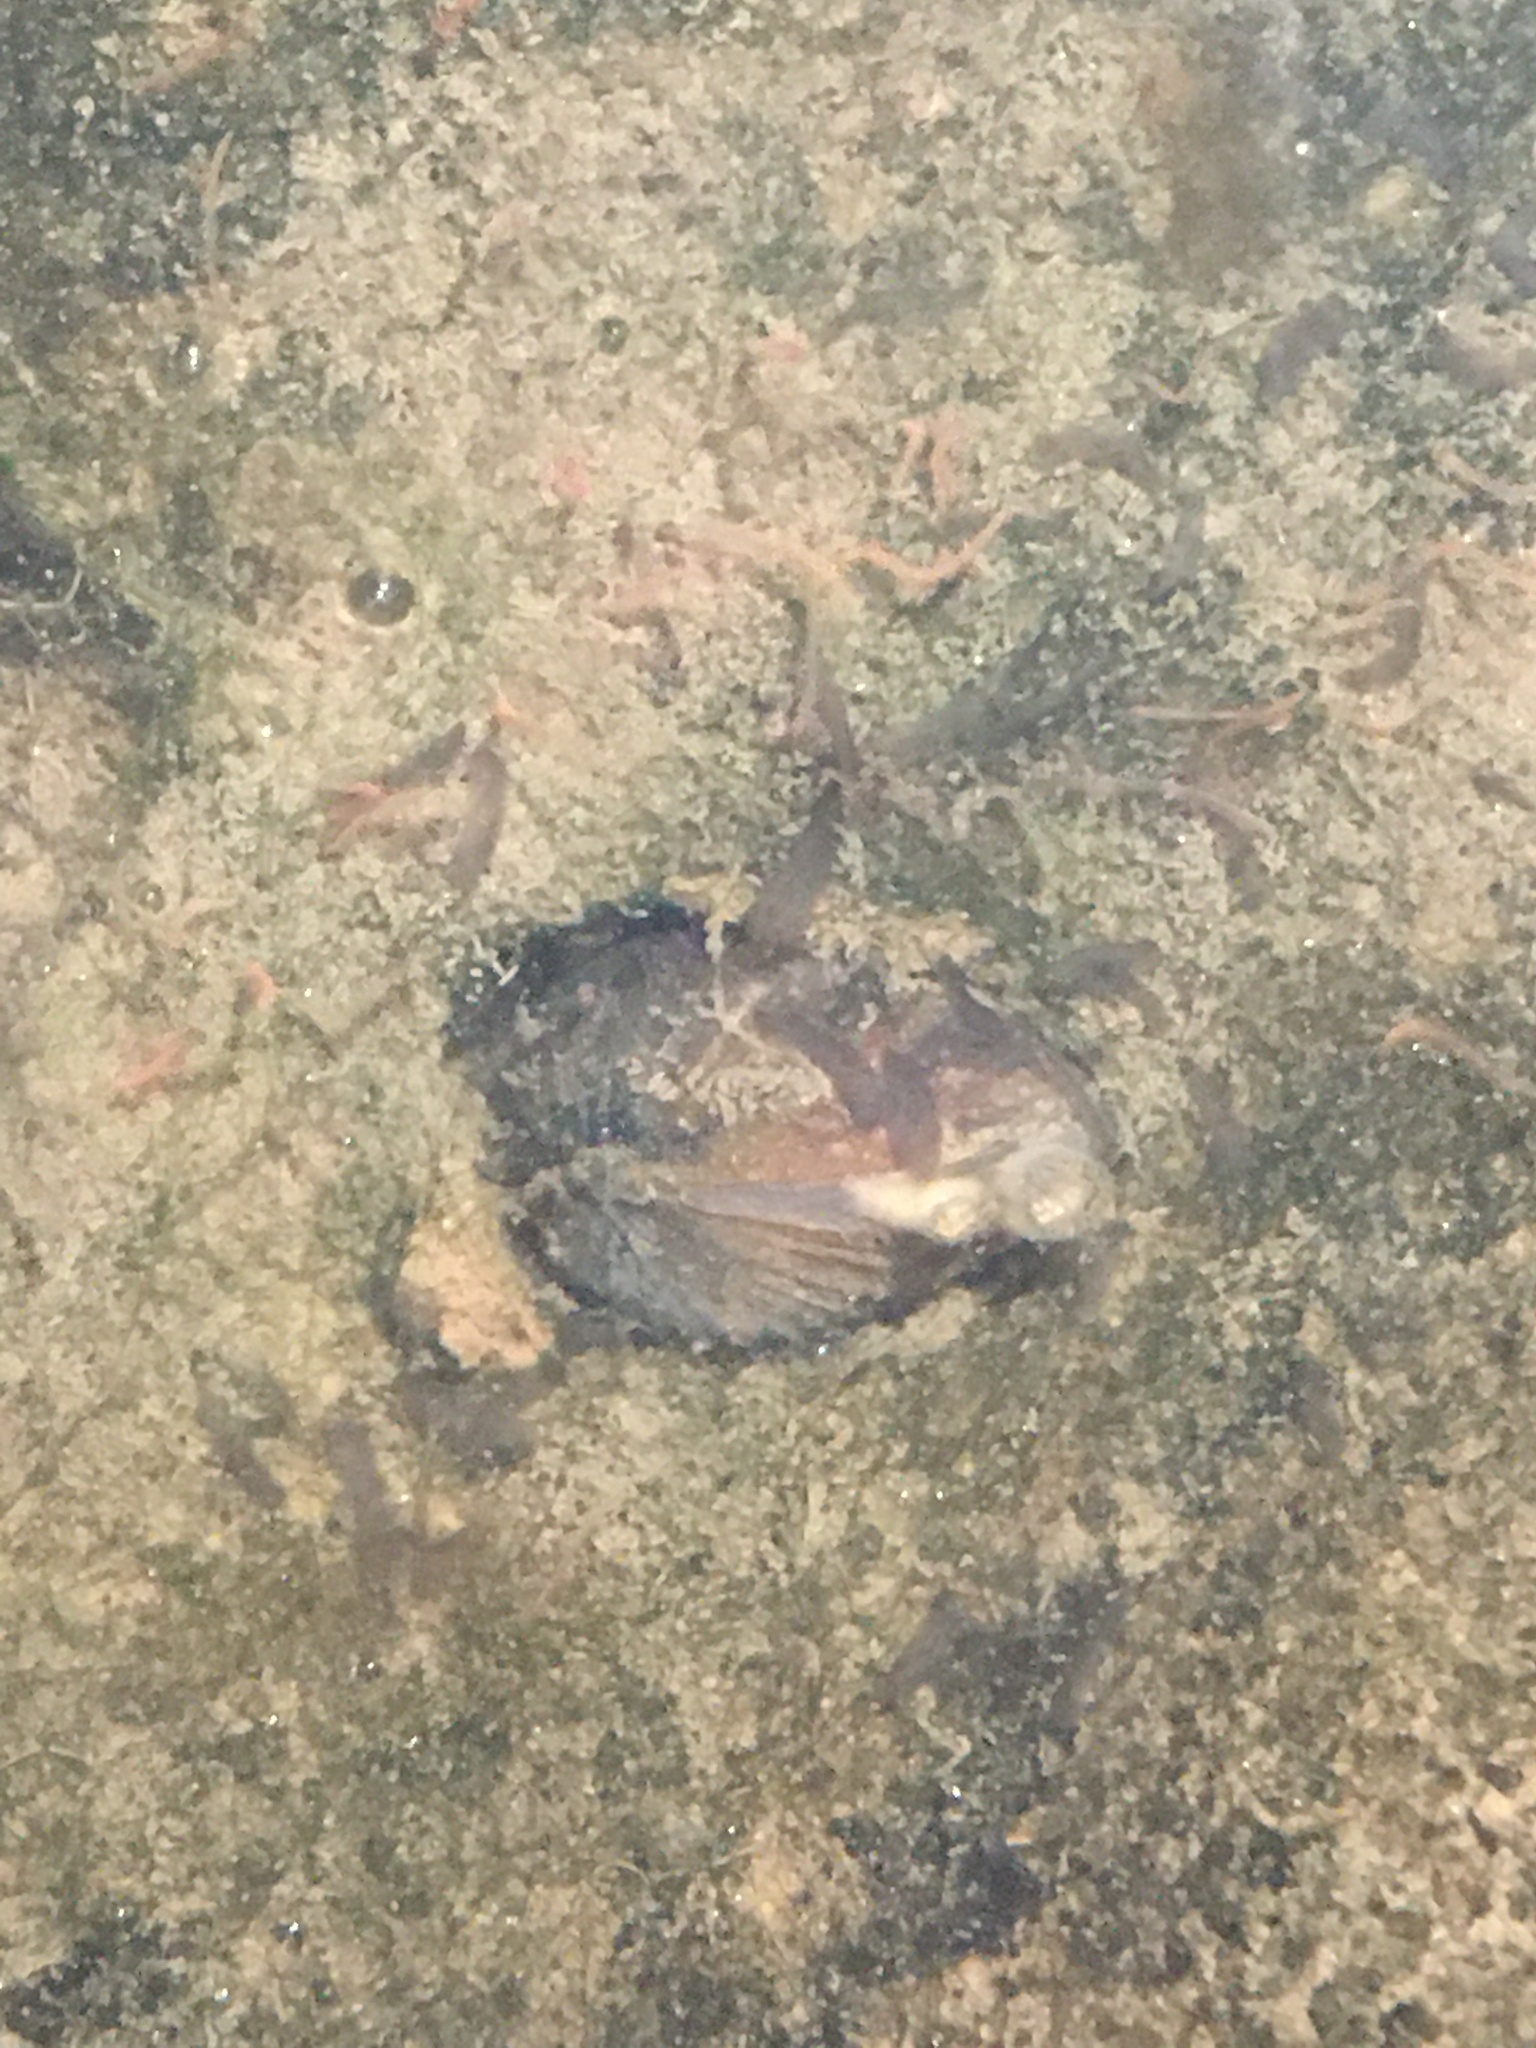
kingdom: Animalia
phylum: Mollusca
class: Bivalvia
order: Venerida
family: Cyrenidae
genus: Corbicula
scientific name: Corbicula fluminea
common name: Asian clam
